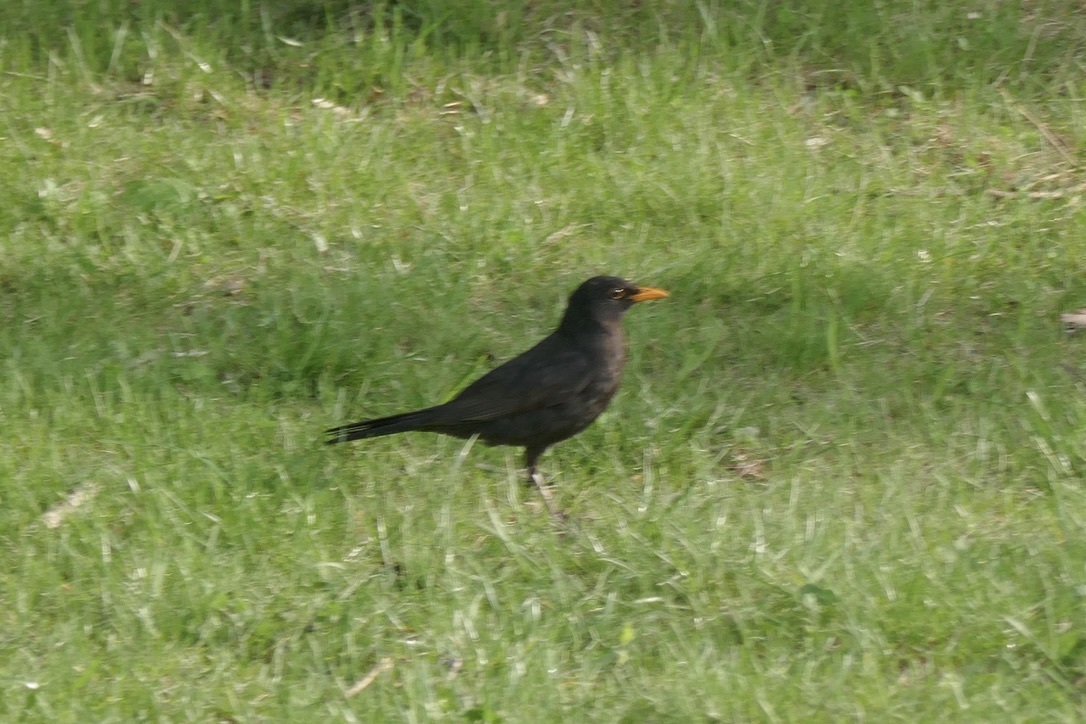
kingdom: Animalia
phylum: Chordata
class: Aves
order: Passeriformes
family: Turdidae
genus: Turdus
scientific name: Turdus merula
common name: Common blackbird
